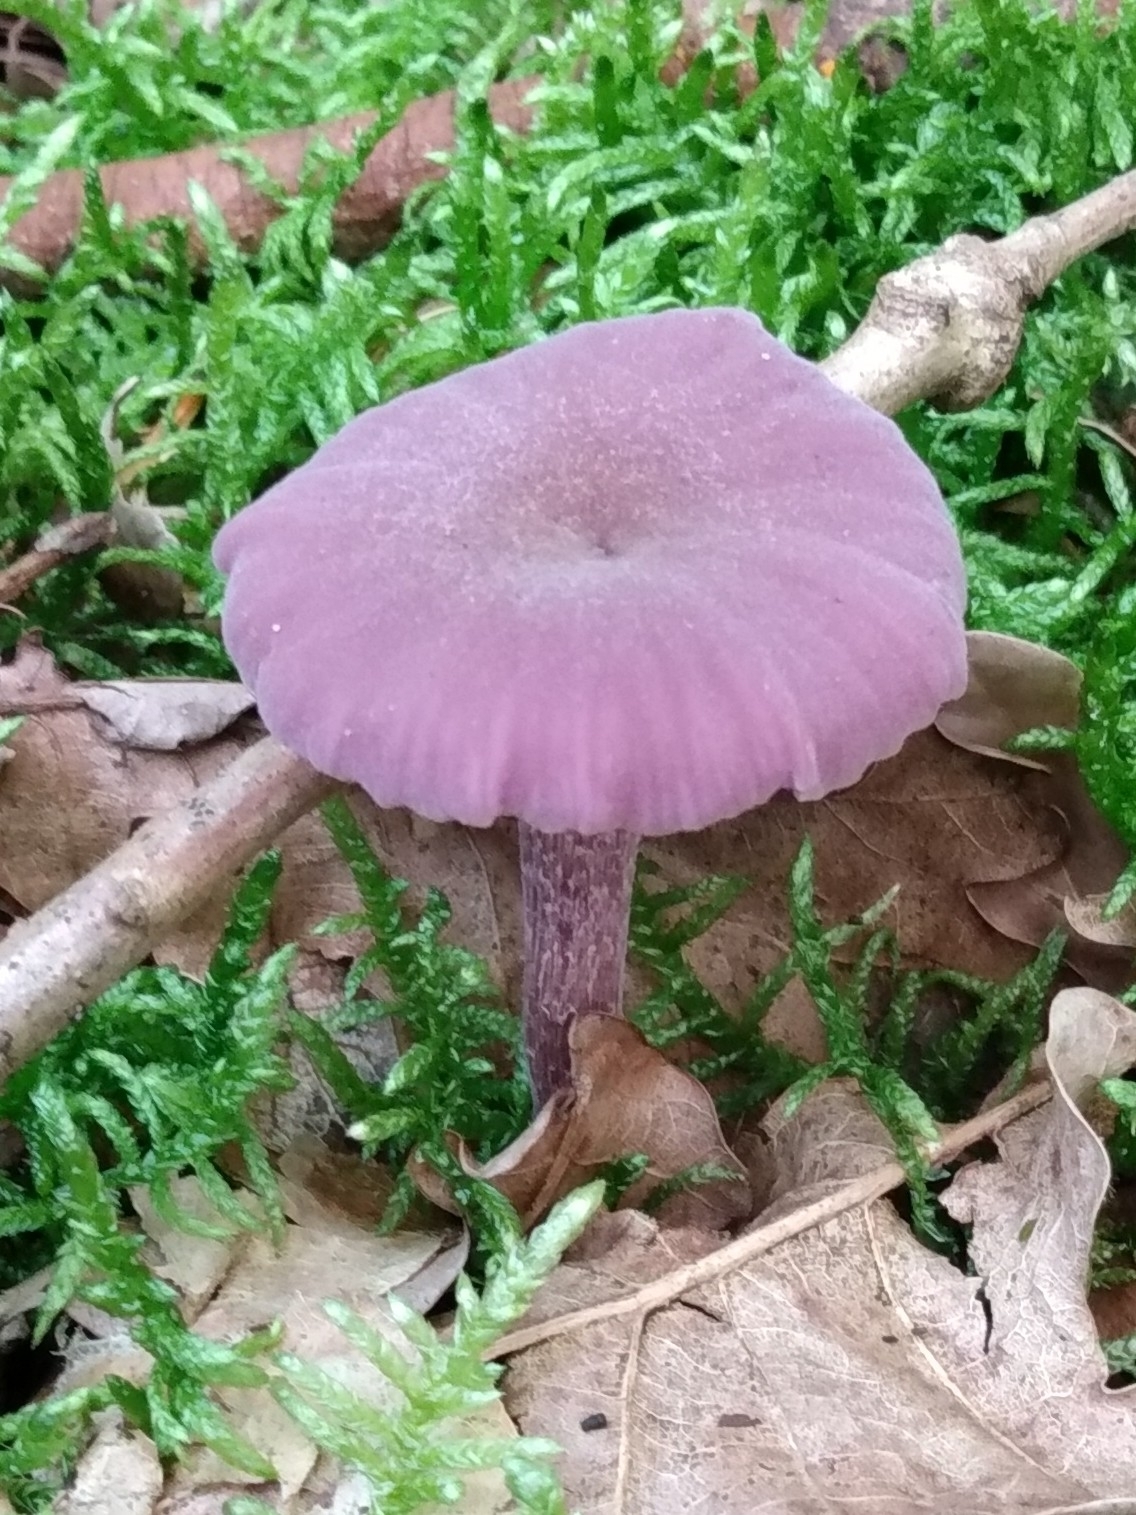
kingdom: Fungi
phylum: Basidiomycota
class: Agaricomycetes
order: Agaricales
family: Hydnangiaceae
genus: Laccaria
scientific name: Laccaria amethystina
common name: Amethyst deceiver
